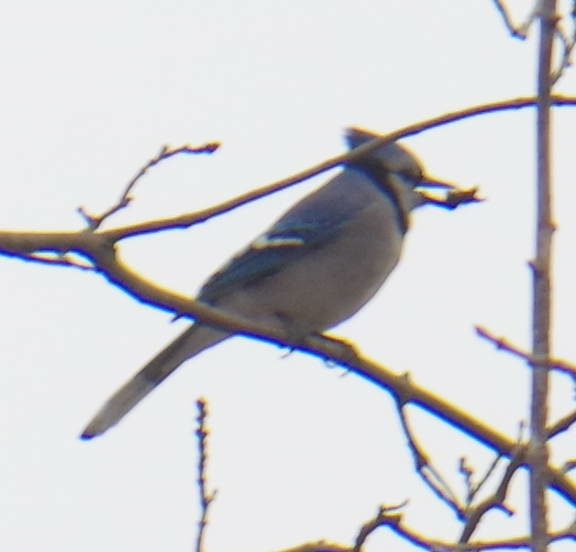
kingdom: Animalia
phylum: Chordata
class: Aves
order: Passeriformes
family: Corvidae
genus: Cyanocitta
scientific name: Cyanocitta cristata
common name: Blue jay
